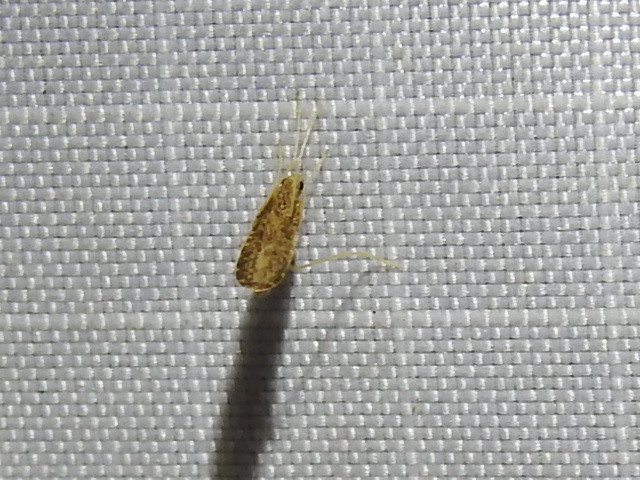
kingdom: Animalia
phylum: Arthropoda
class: Insecta
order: Diptera
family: Limoniidae
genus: Erioptera
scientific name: Erioptera tantilla
